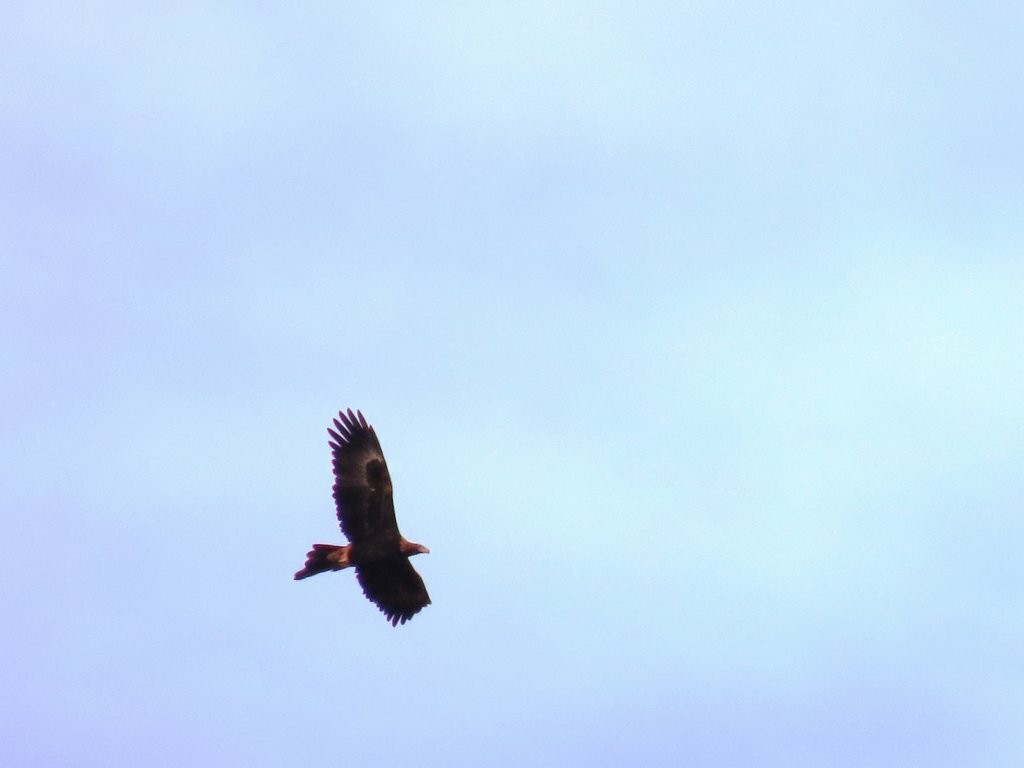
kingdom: Animalia
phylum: Chordata
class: Aves
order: Accipitriformes
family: Accipitridae
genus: Aquila
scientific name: Aquila audax
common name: Wedge-tailed eagle
